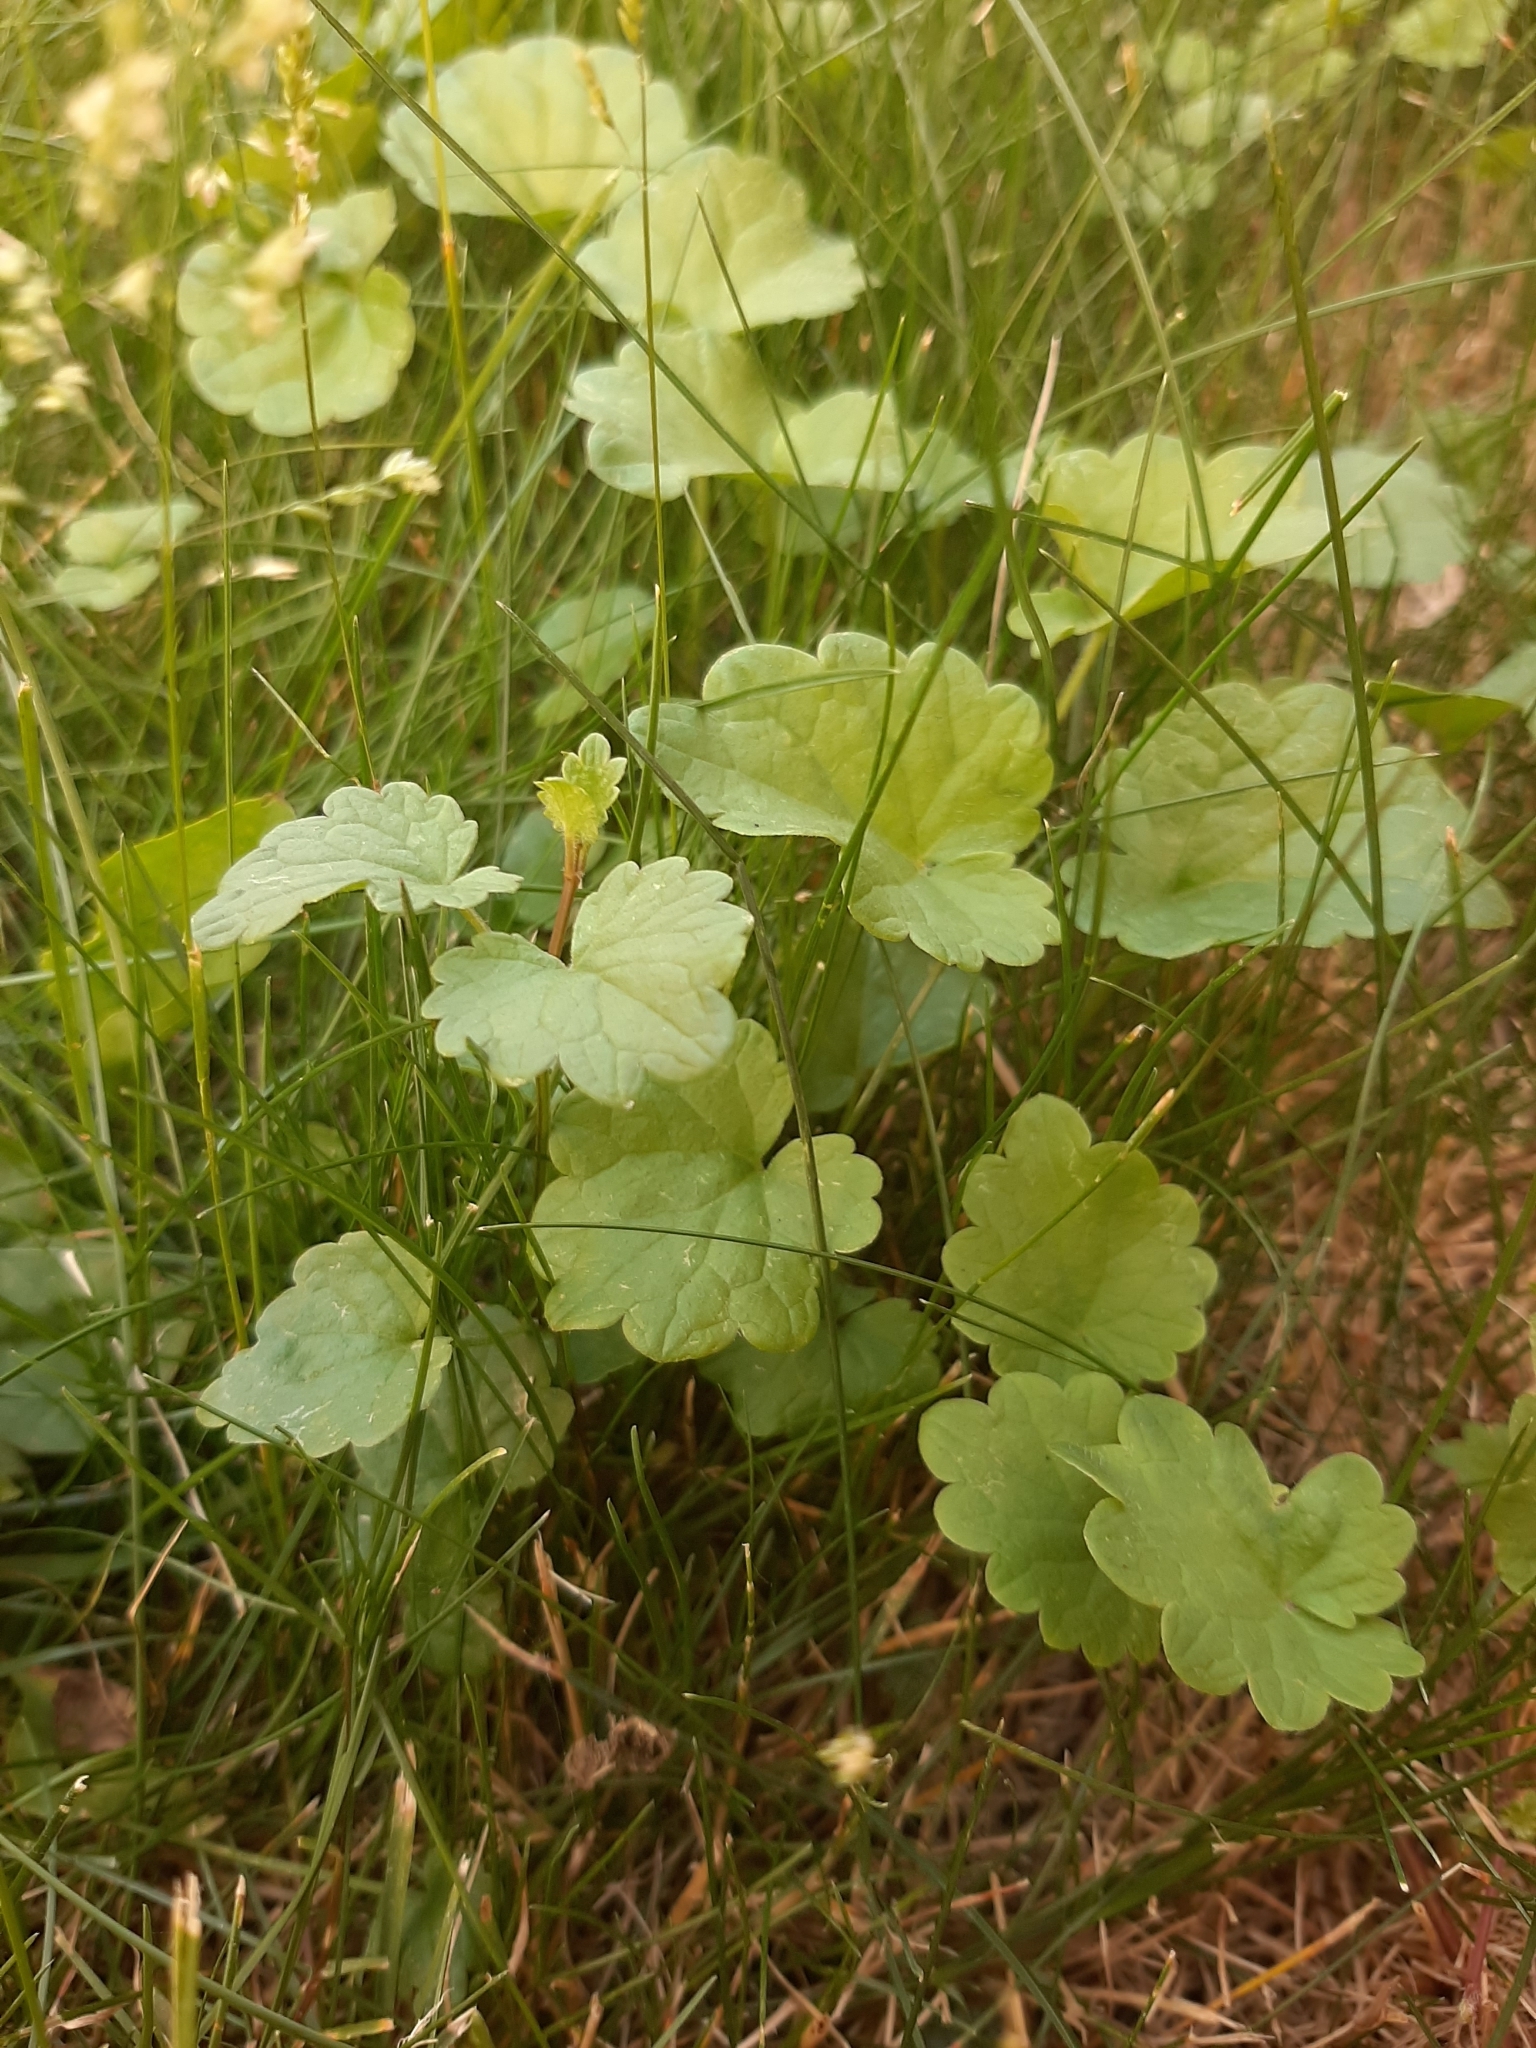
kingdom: Plantae
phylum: Tracheophyta
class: Magnoliopsida
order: Lamiales
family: Lamiaceae
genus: Glechoma
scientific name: Glechoma hederacea
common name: Ground ivy
